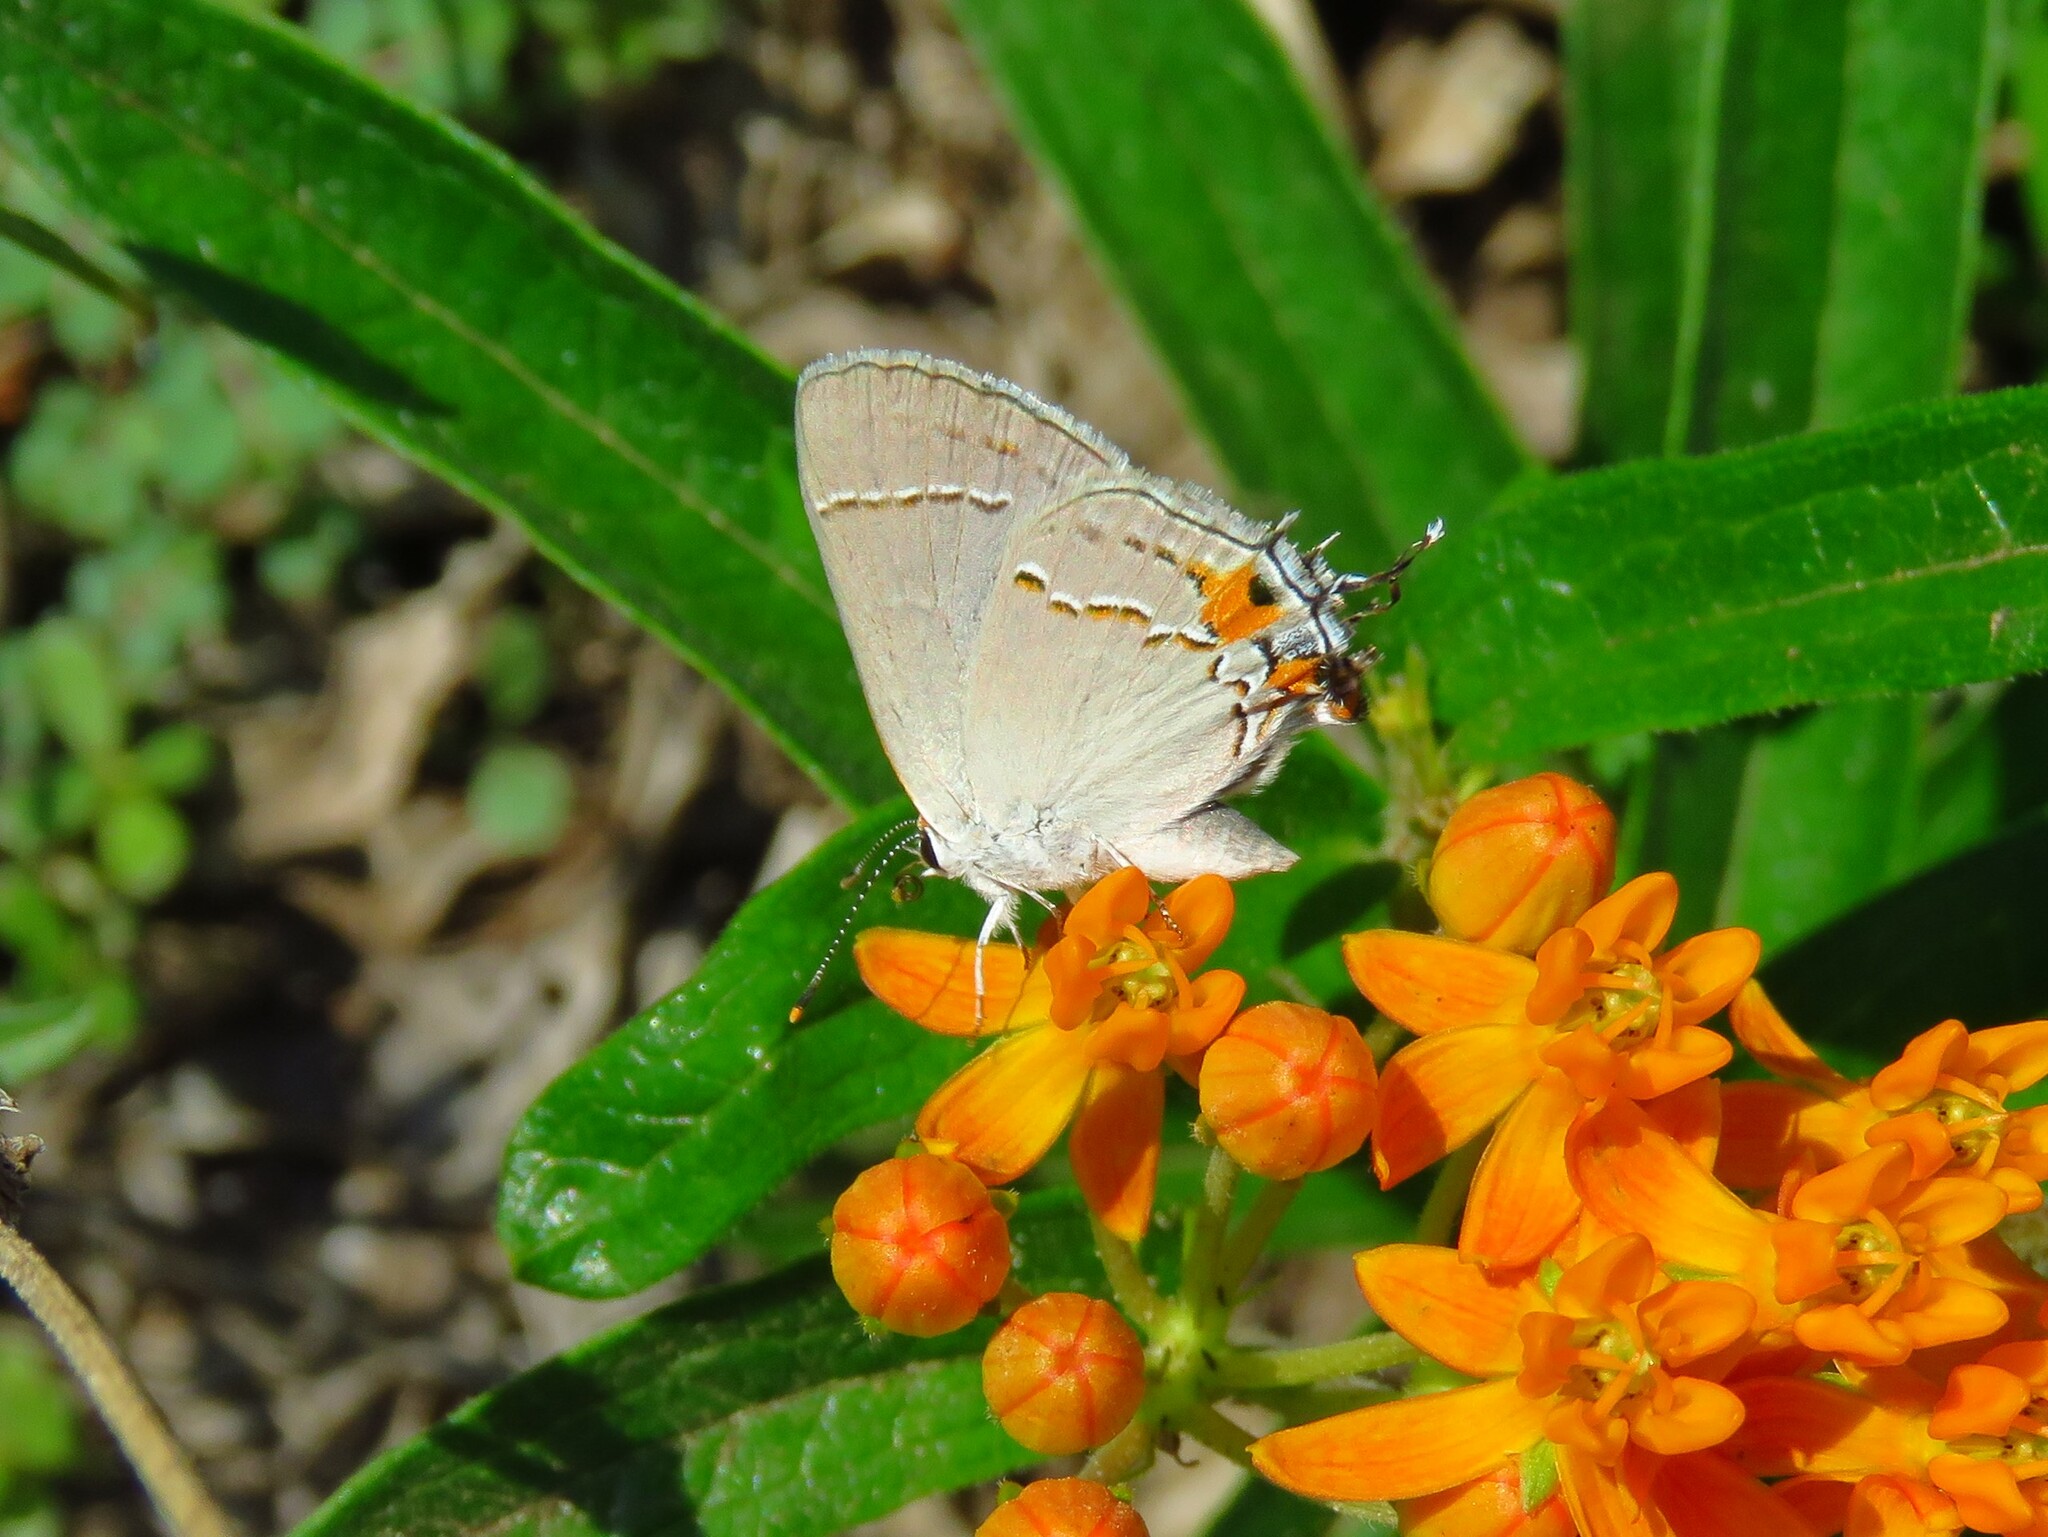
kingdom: Animalia
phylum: Arthropoda
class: Insecta
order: Lepidoptera
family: Lycaenidae
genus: Strymon
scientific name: Strymon melinus
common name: Gray hairstreak
